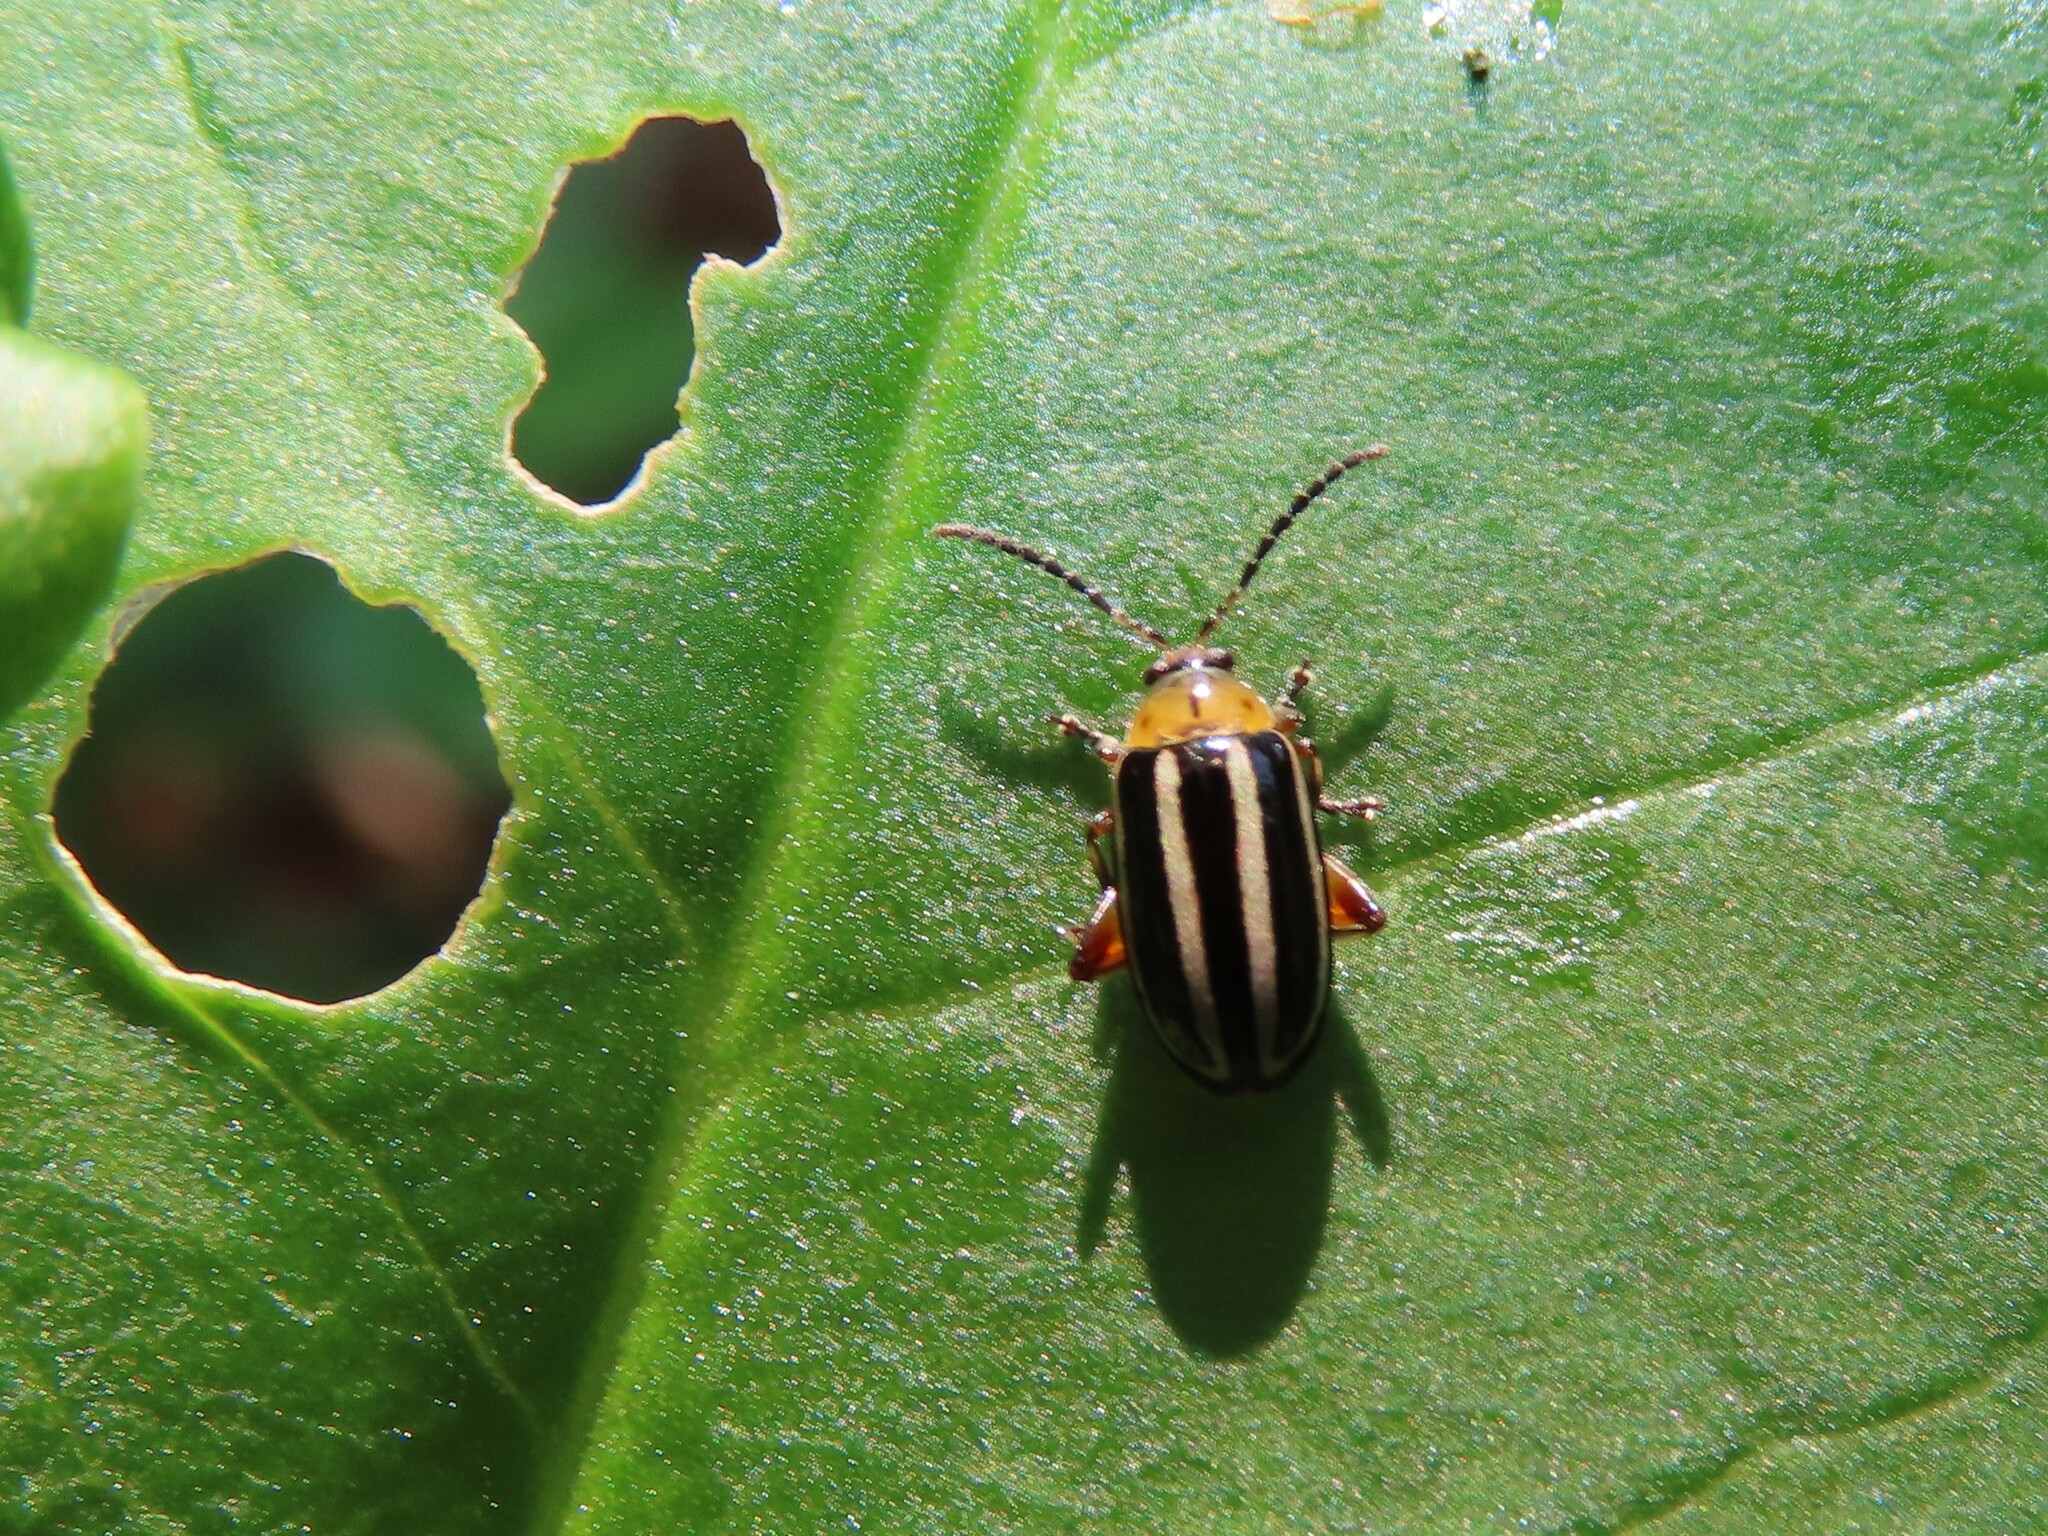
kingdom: Animalia
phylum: Arthropoda
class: Insecta
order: Coleoptera
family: Chrysomelidae
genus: Disonycha
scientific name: Disonycha glabrata
